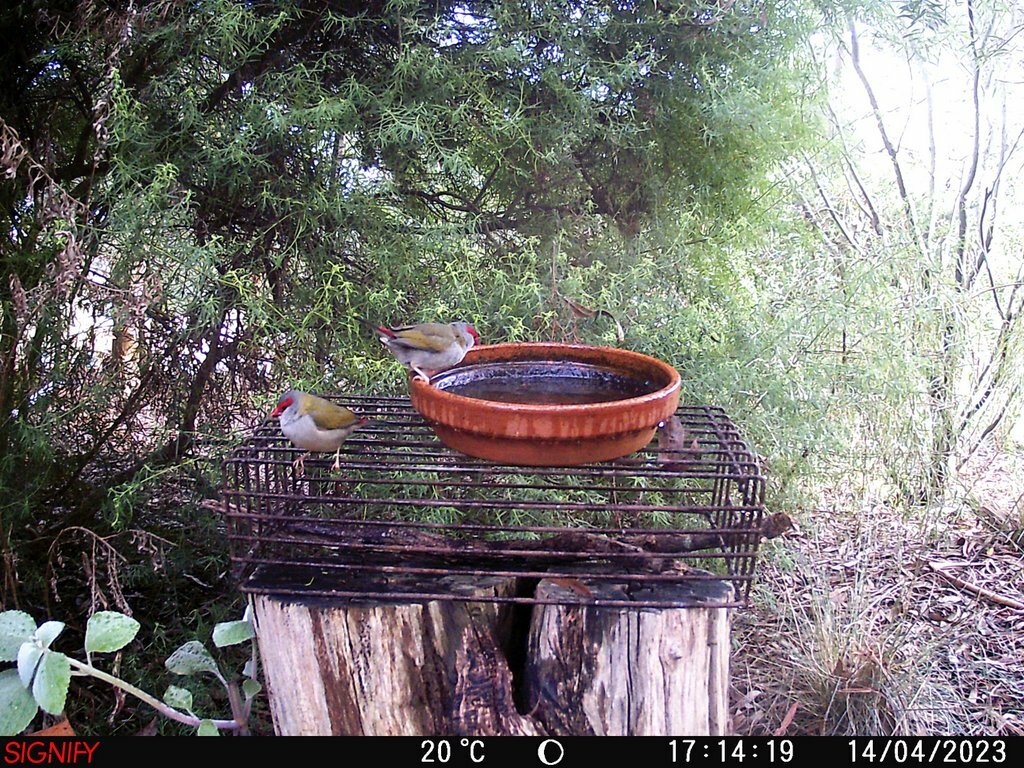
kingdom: Animalia
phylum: Chordata
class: Aves
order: Passeriformes
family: Estrildidae
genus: Neochmia
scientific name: Neochmia temporalis
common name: Red-browed finch
